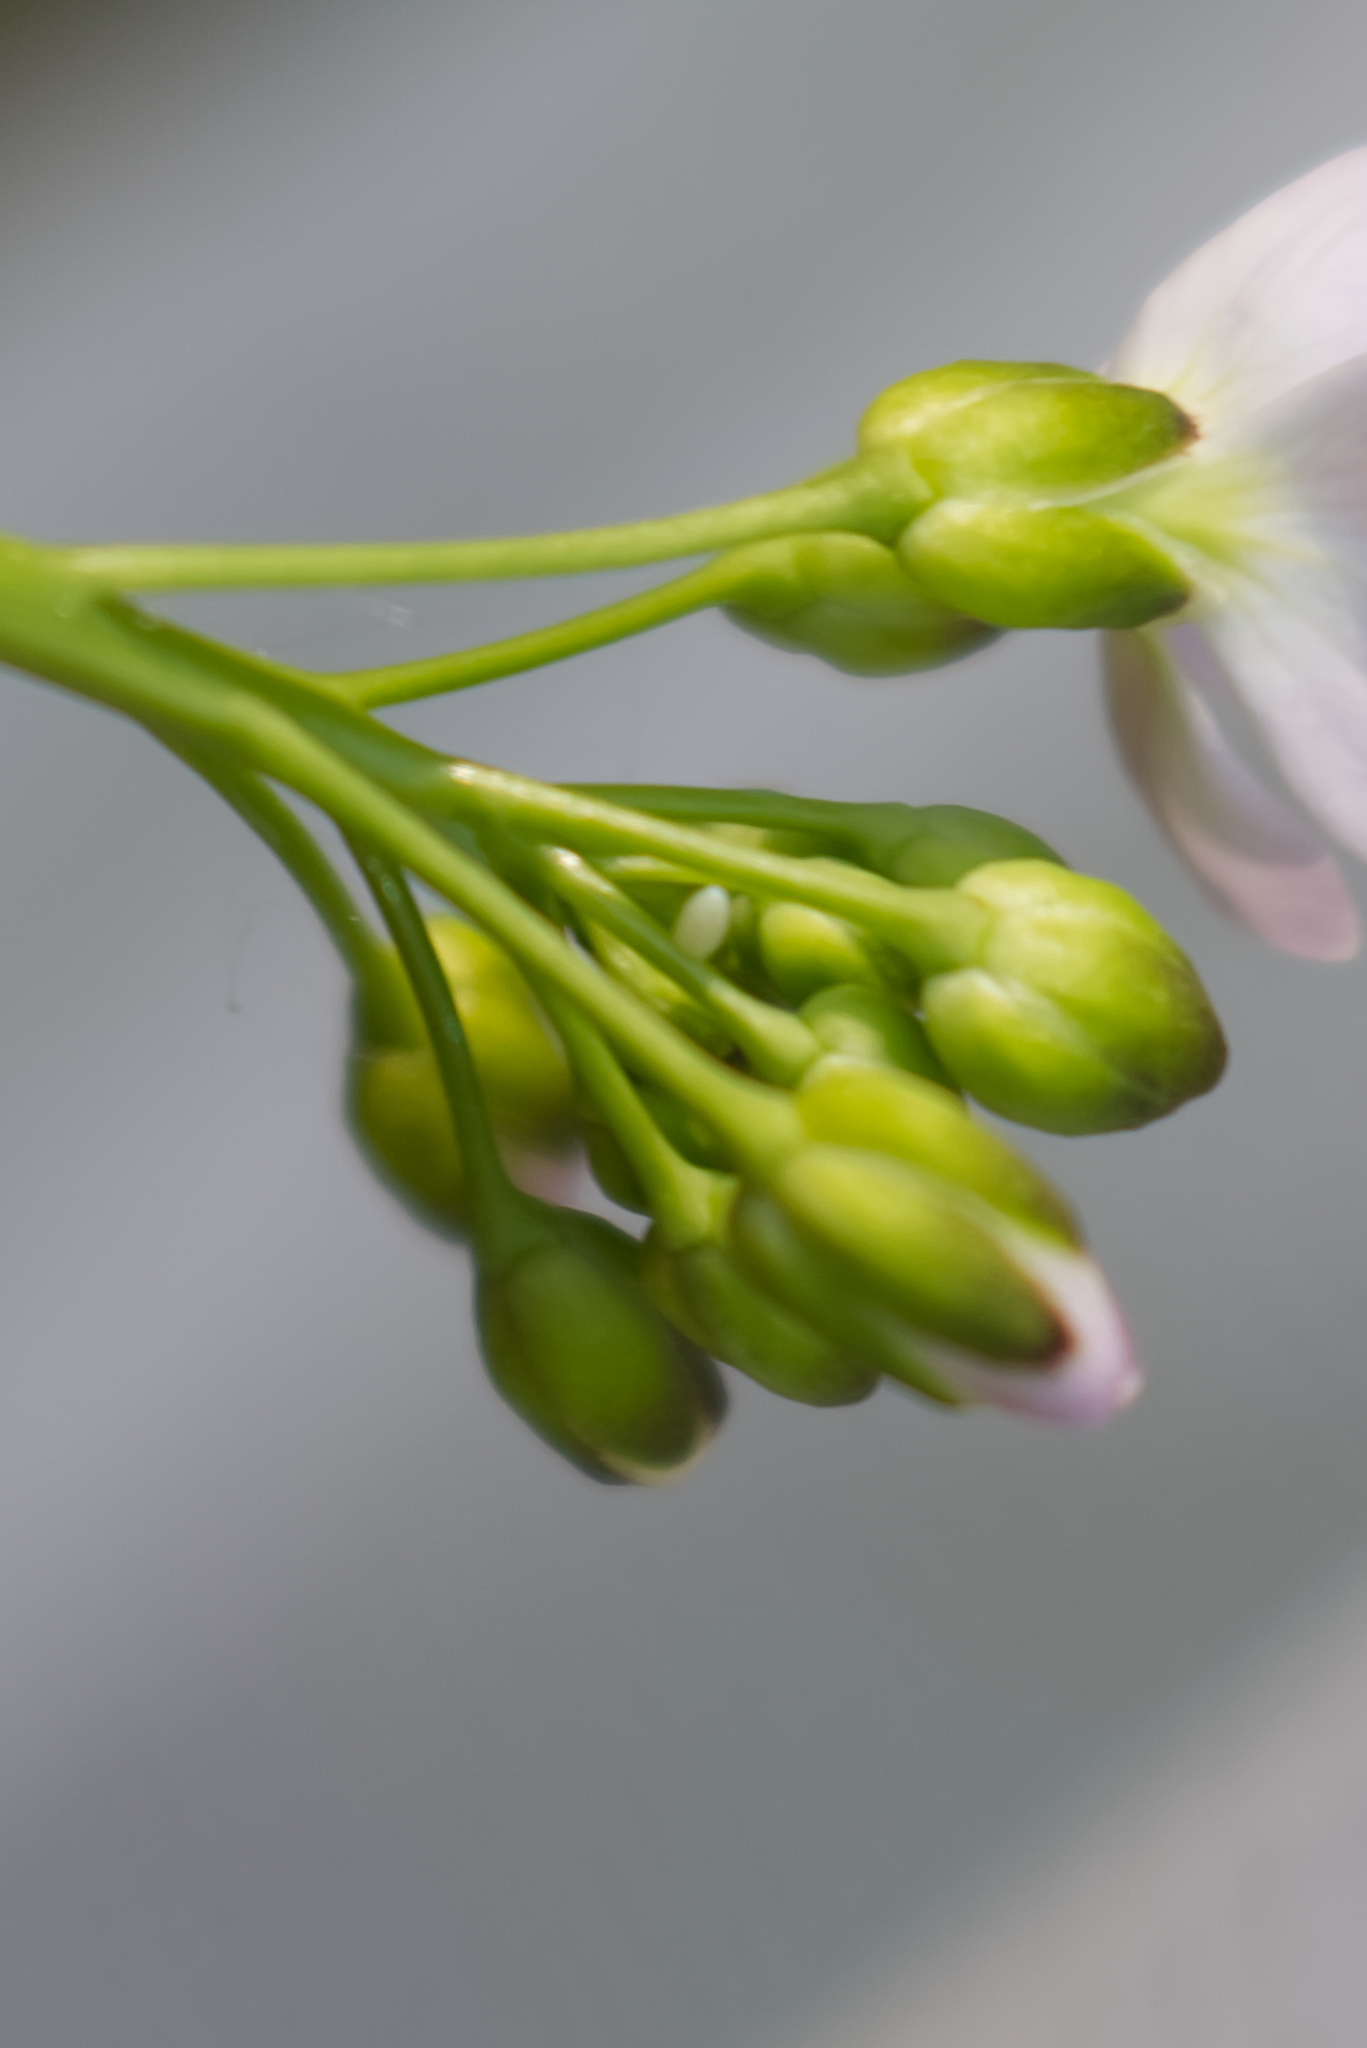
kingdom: Animalia
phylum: Arthropoda
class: Insecta
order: Lepidoptera
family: Pieridae
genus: Anthocharis
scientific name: Anthocharis cardamines
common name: Orange-tip
